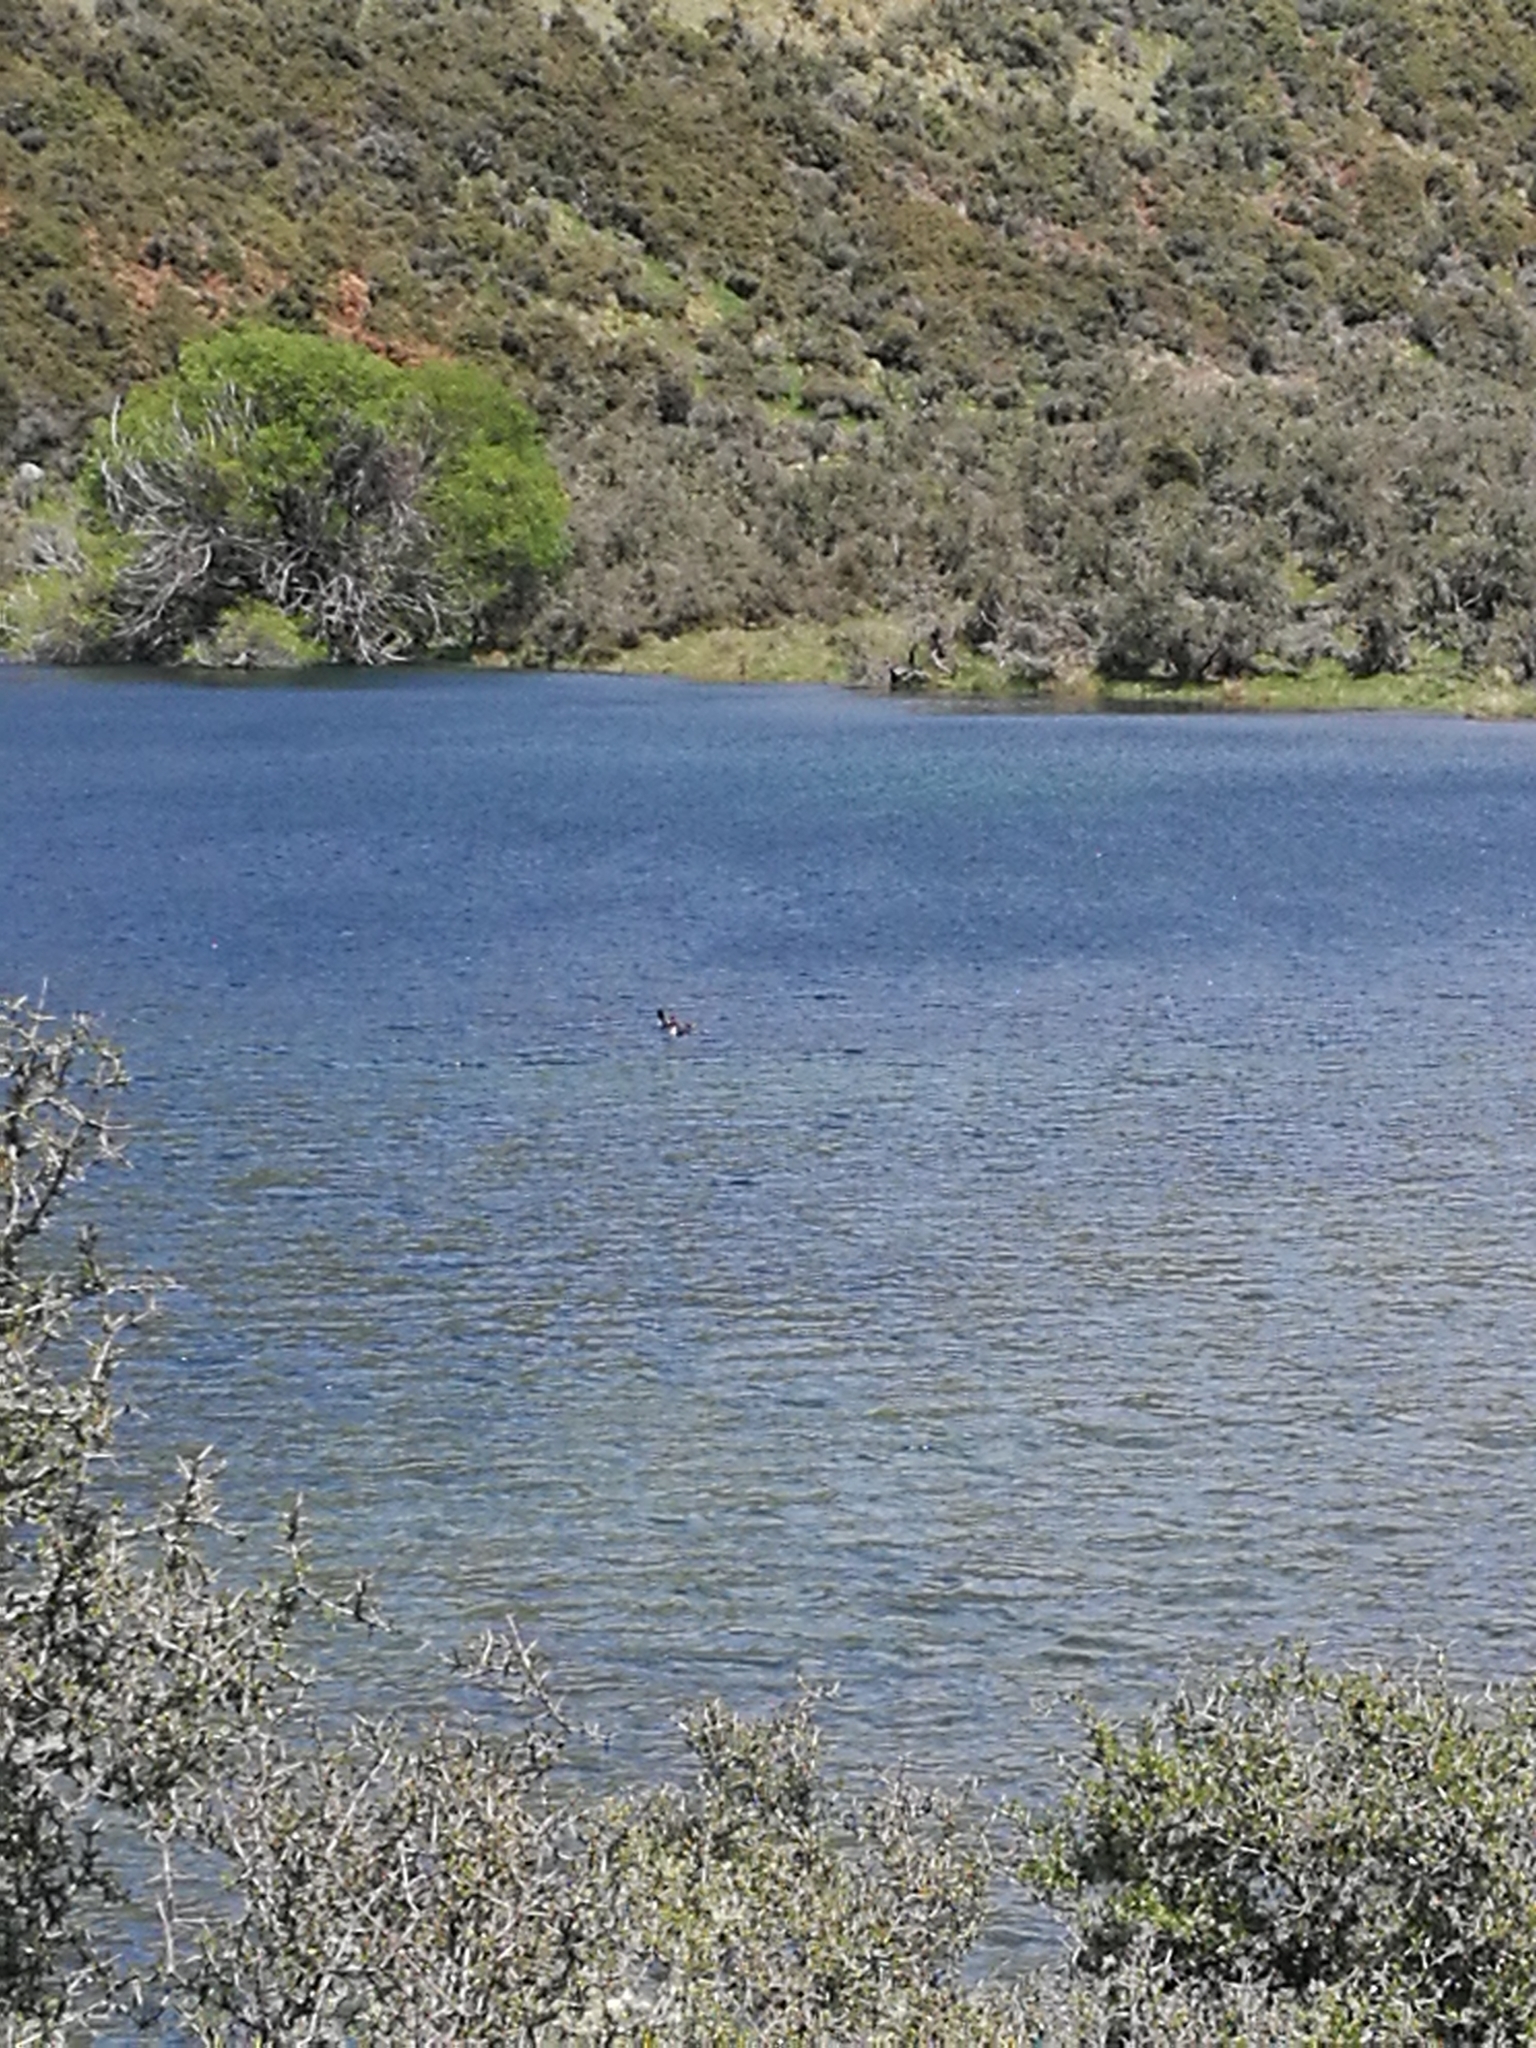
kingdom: Animalia
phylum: Chordata
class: Aves
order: Podicipediformes
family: Podicipedidae
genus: Podiceps
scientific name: Podiceps cristatus
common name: Great crested grebe
